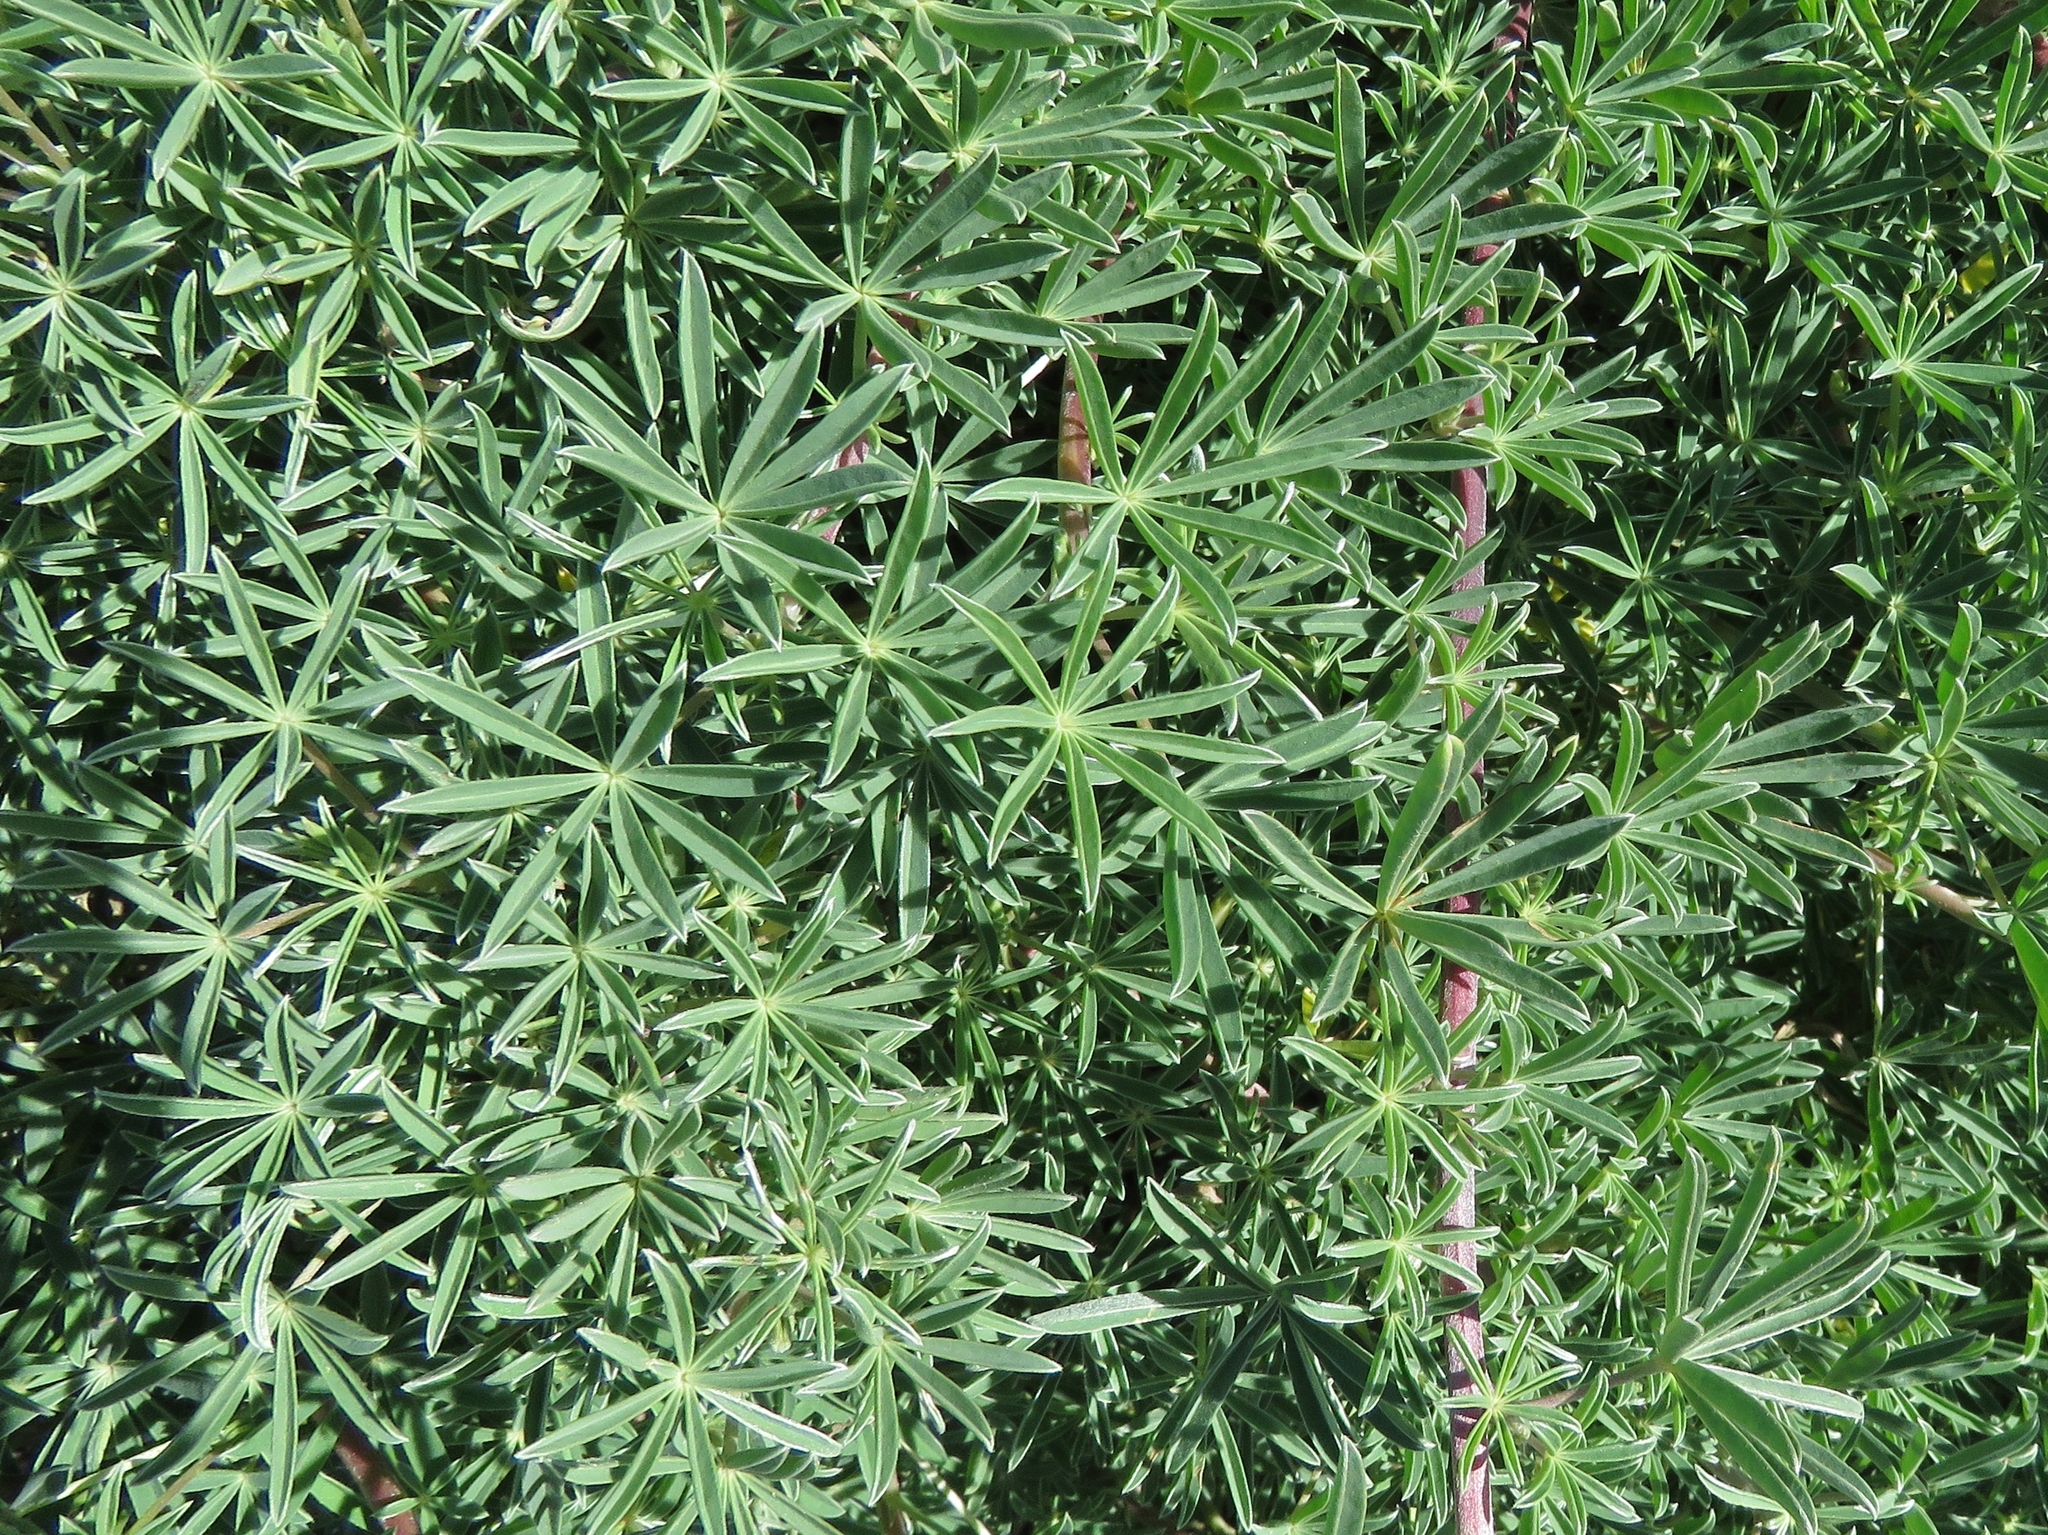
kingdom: Plantae
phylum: Tracheophyta
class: Magnoliopsida
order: Fabales
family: Fabaceae
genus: Lupinus
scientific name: Lupinus arboreus
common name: Yellow bush lupine
